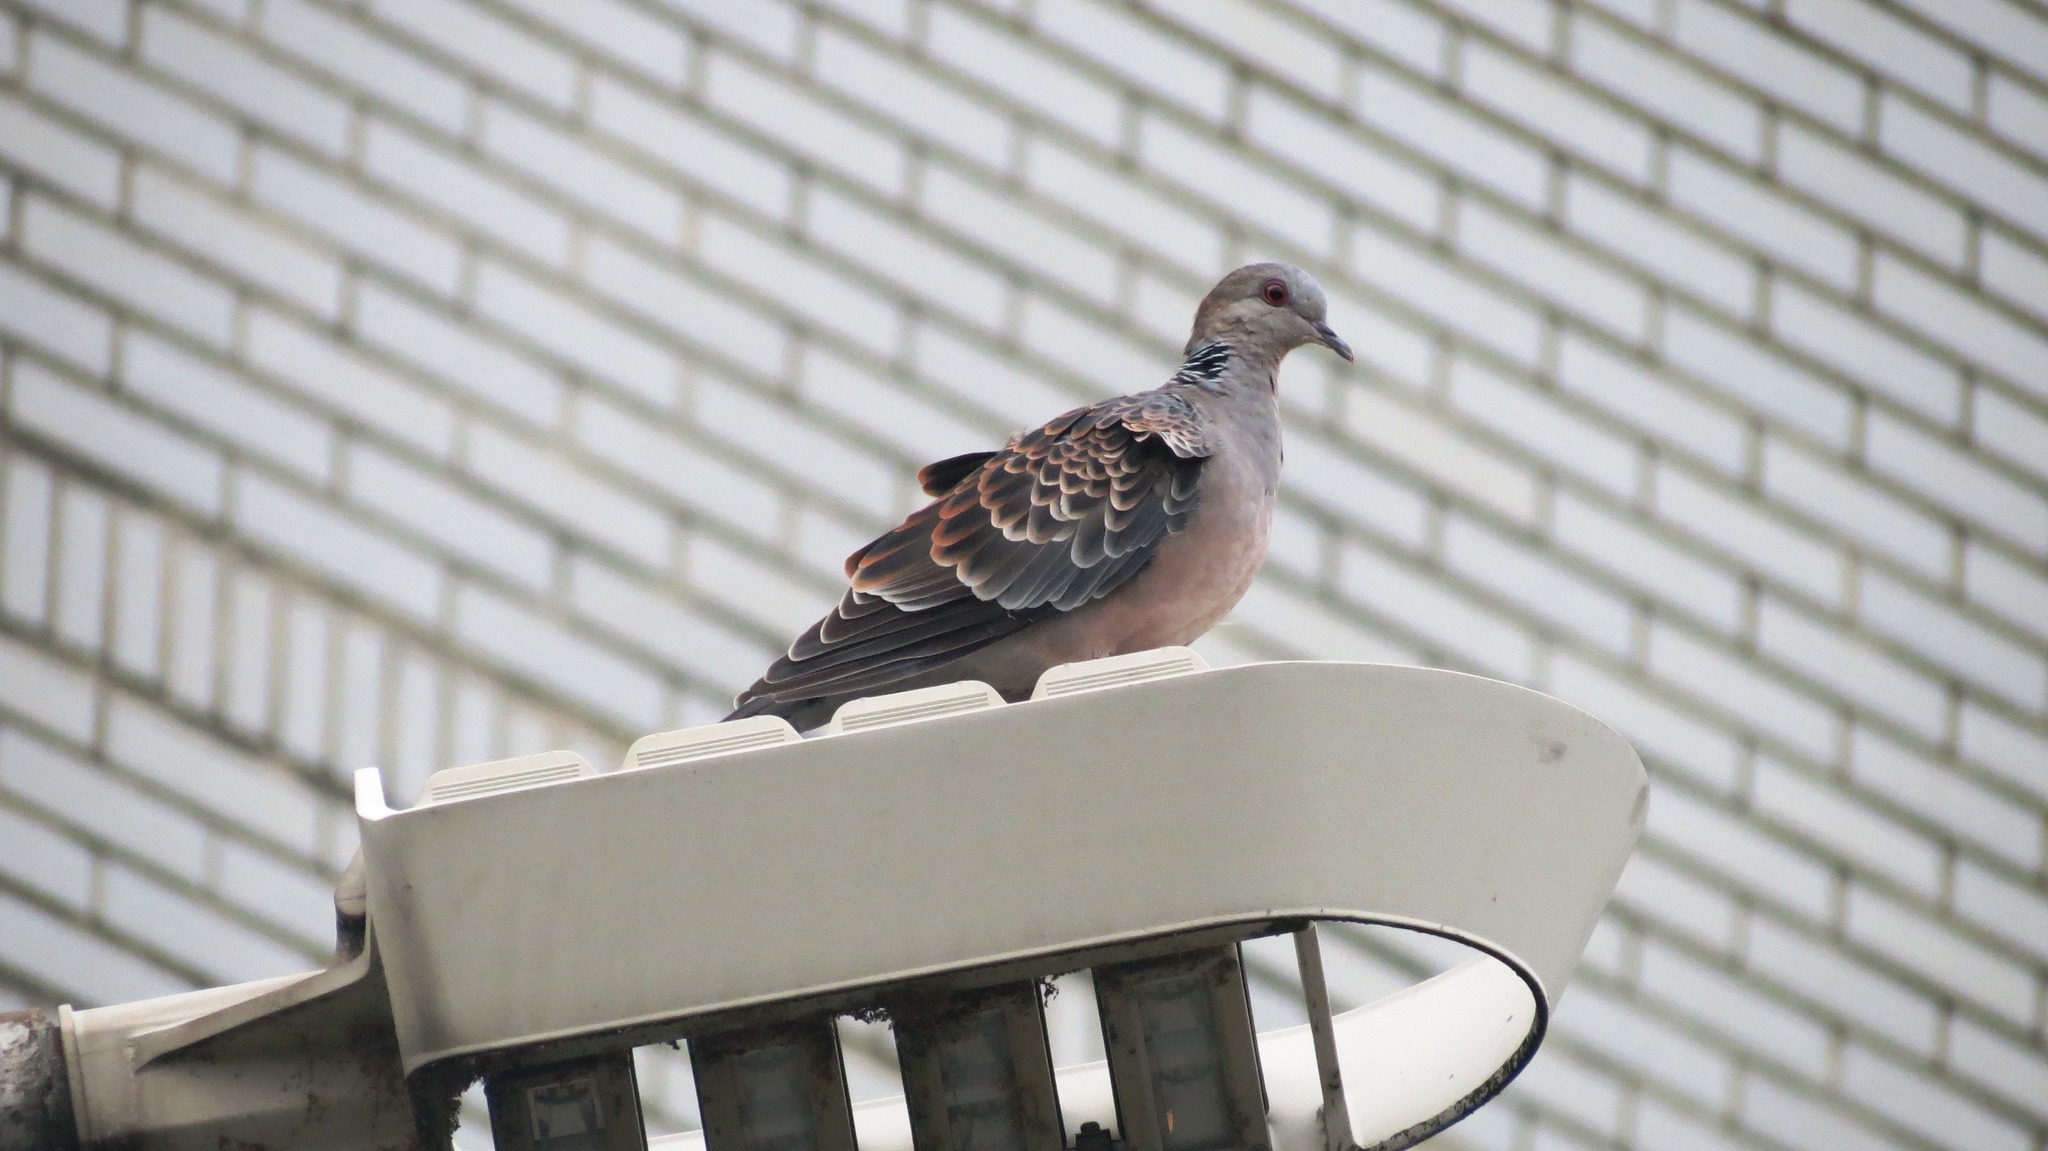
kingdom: Animalia
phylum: Chordata
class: Aves
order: Columbiformes
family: Columbidae
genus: Streptopelia
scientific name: Streptopelia orientalis
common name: Oriental turtle dove
